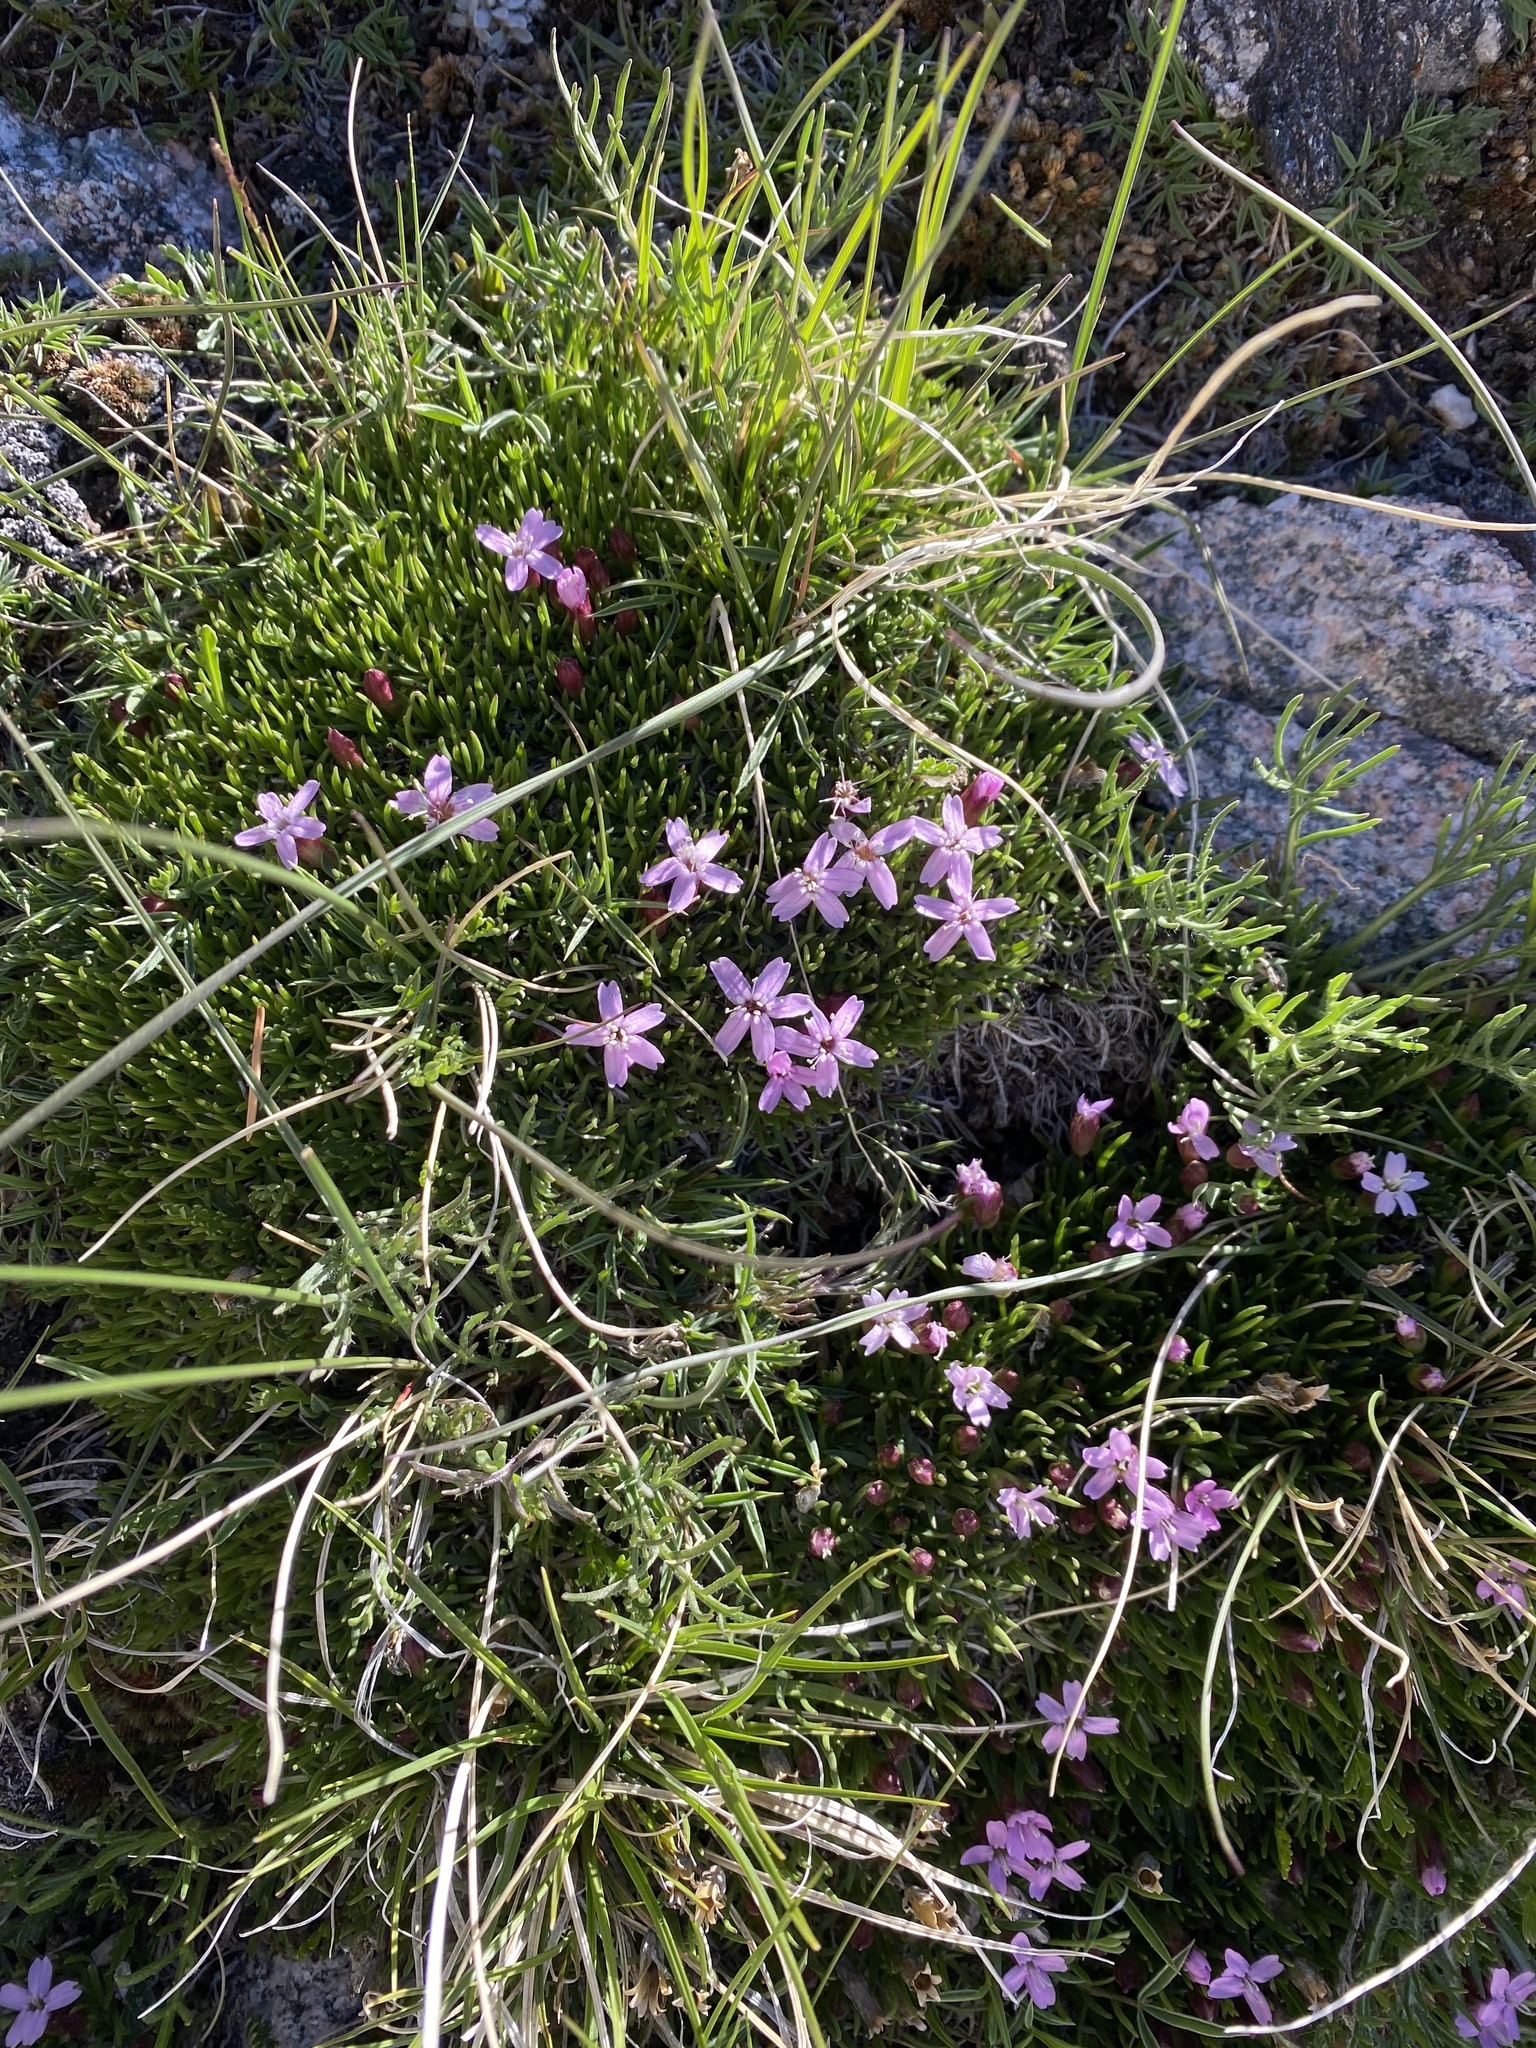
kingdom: Plantae
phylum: Tracheophyta
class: Magnoliopsida
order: Caryophyllales
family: Caryophyllaceae
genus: Silene
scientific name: Silene acaulis
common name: Moss campion
